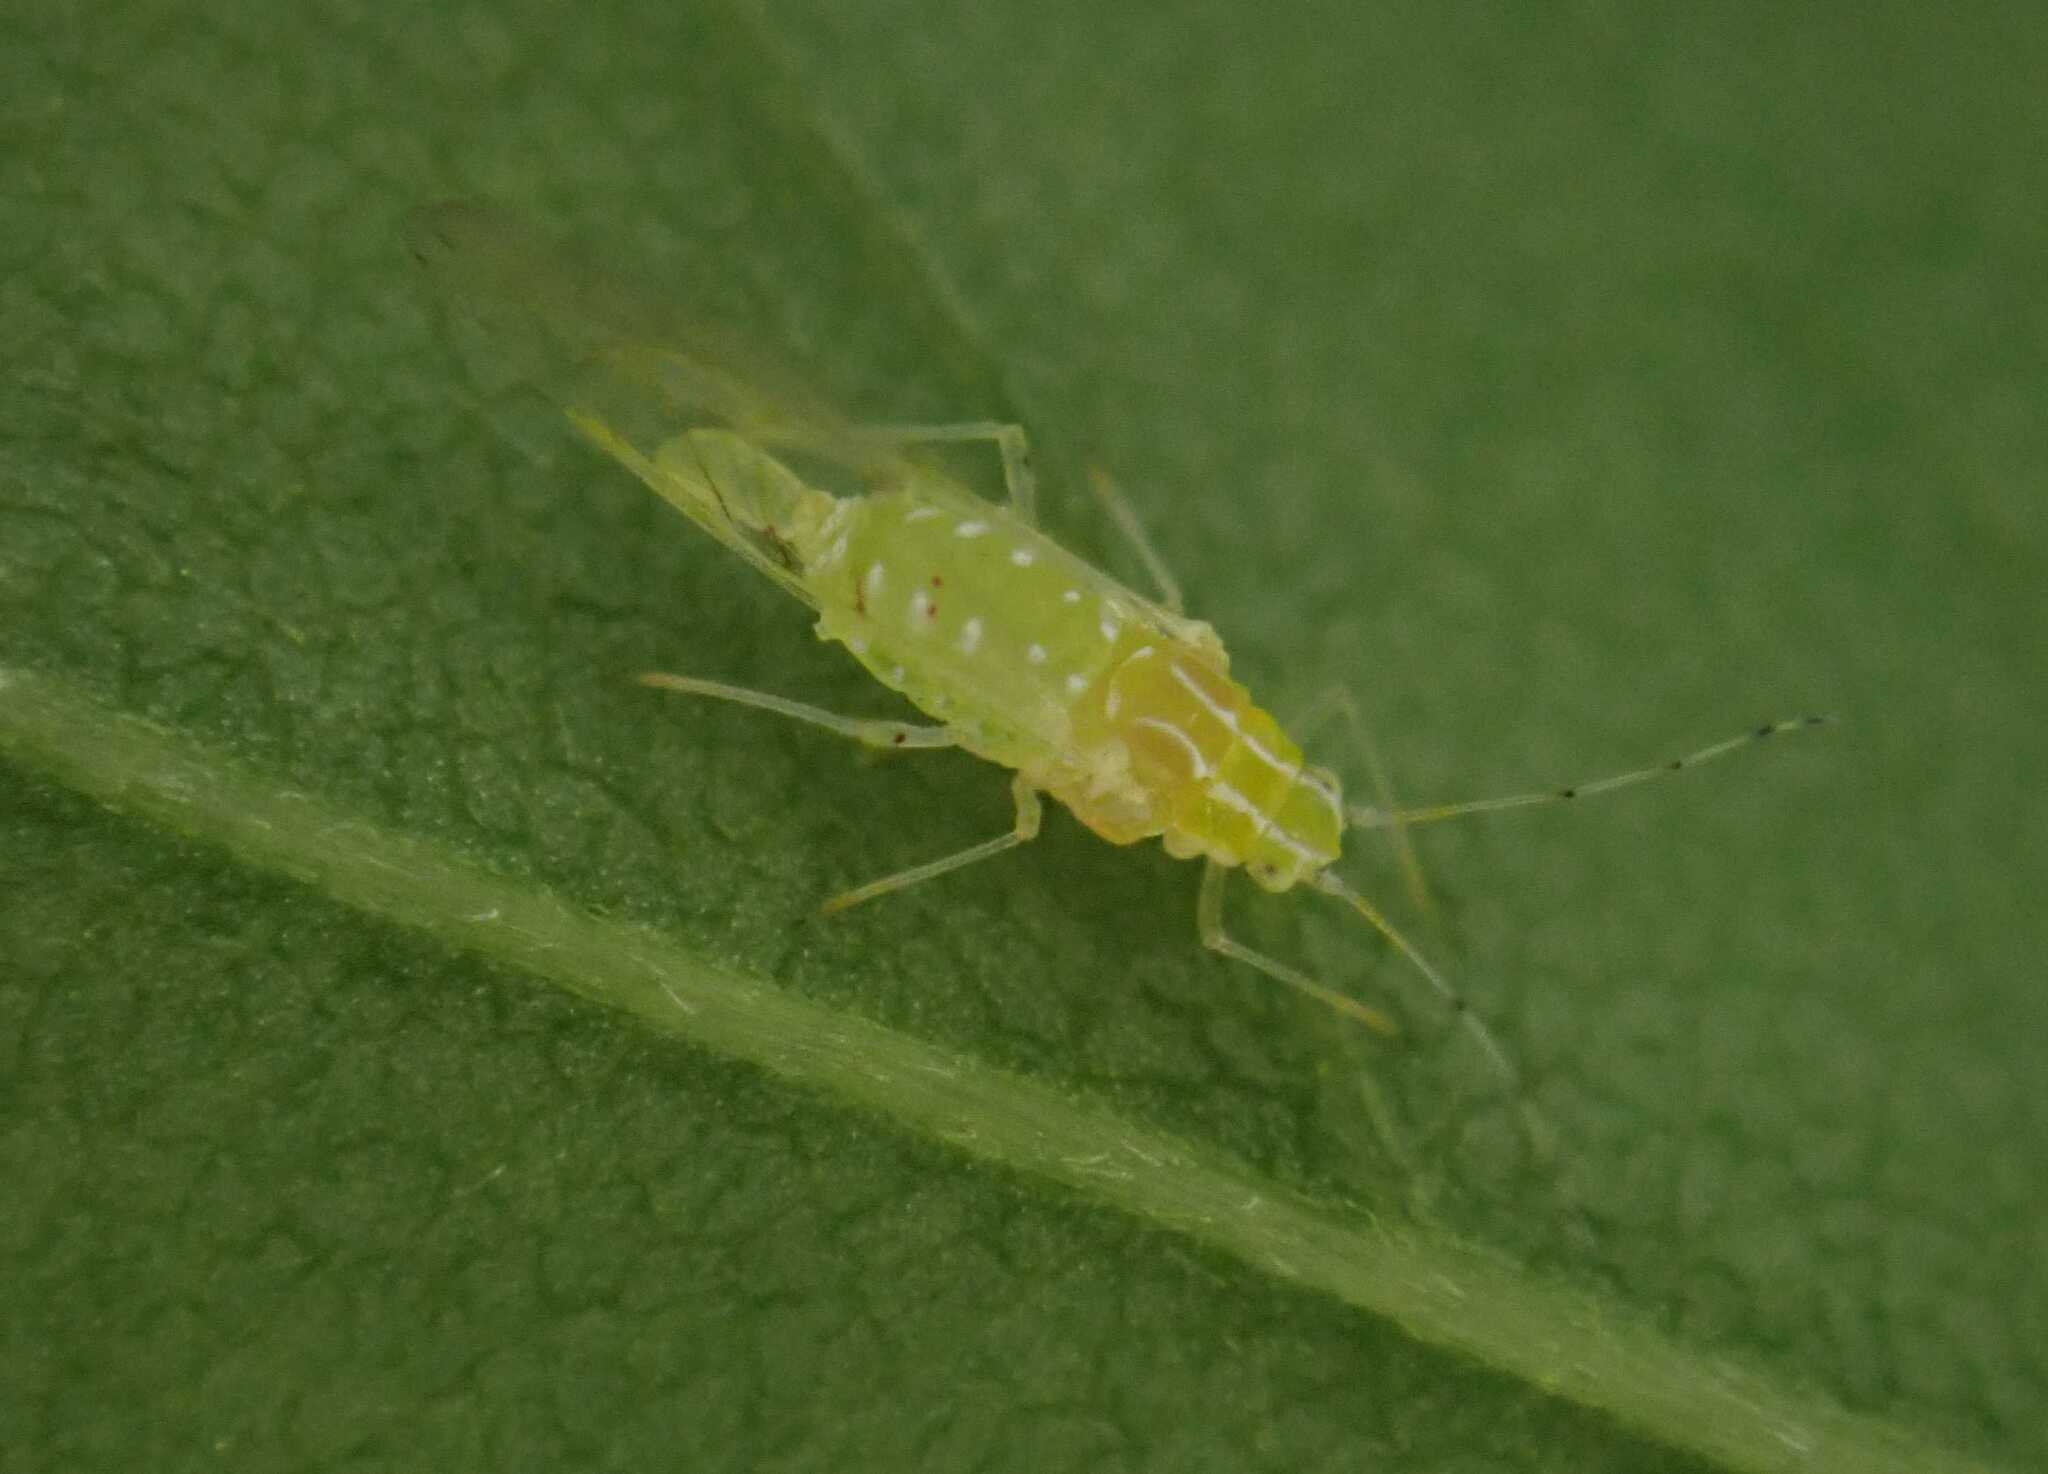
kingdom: Animalia
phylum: Arthropoda
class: Insecta
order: Hemiptera
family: Aphididae
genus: Appendiseta
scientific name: Appendiseta robiniae
